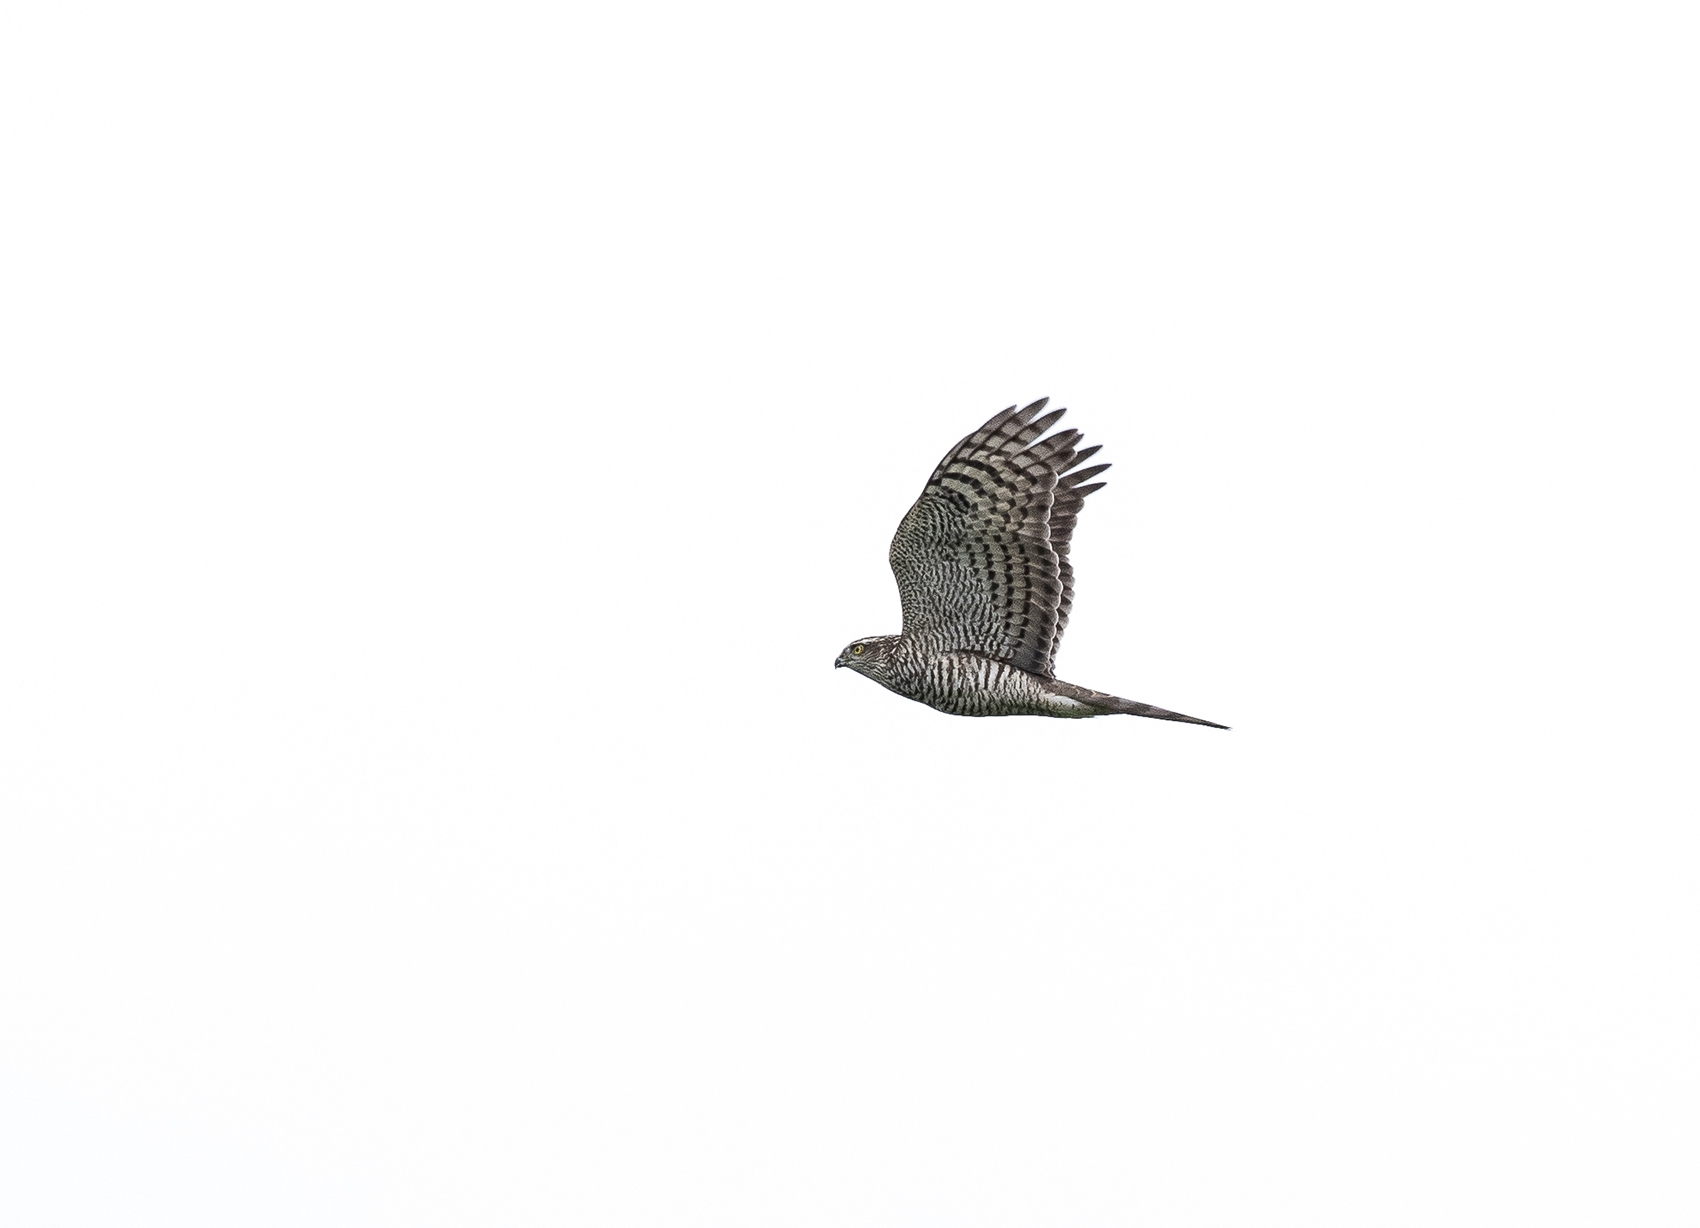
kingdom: Animalia
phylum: Chordata
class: Aves
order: Accipitriformes
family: Accipitridae
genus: Accipiter
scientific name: Accipiter nisus
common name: Eurasian sparrowhawk
